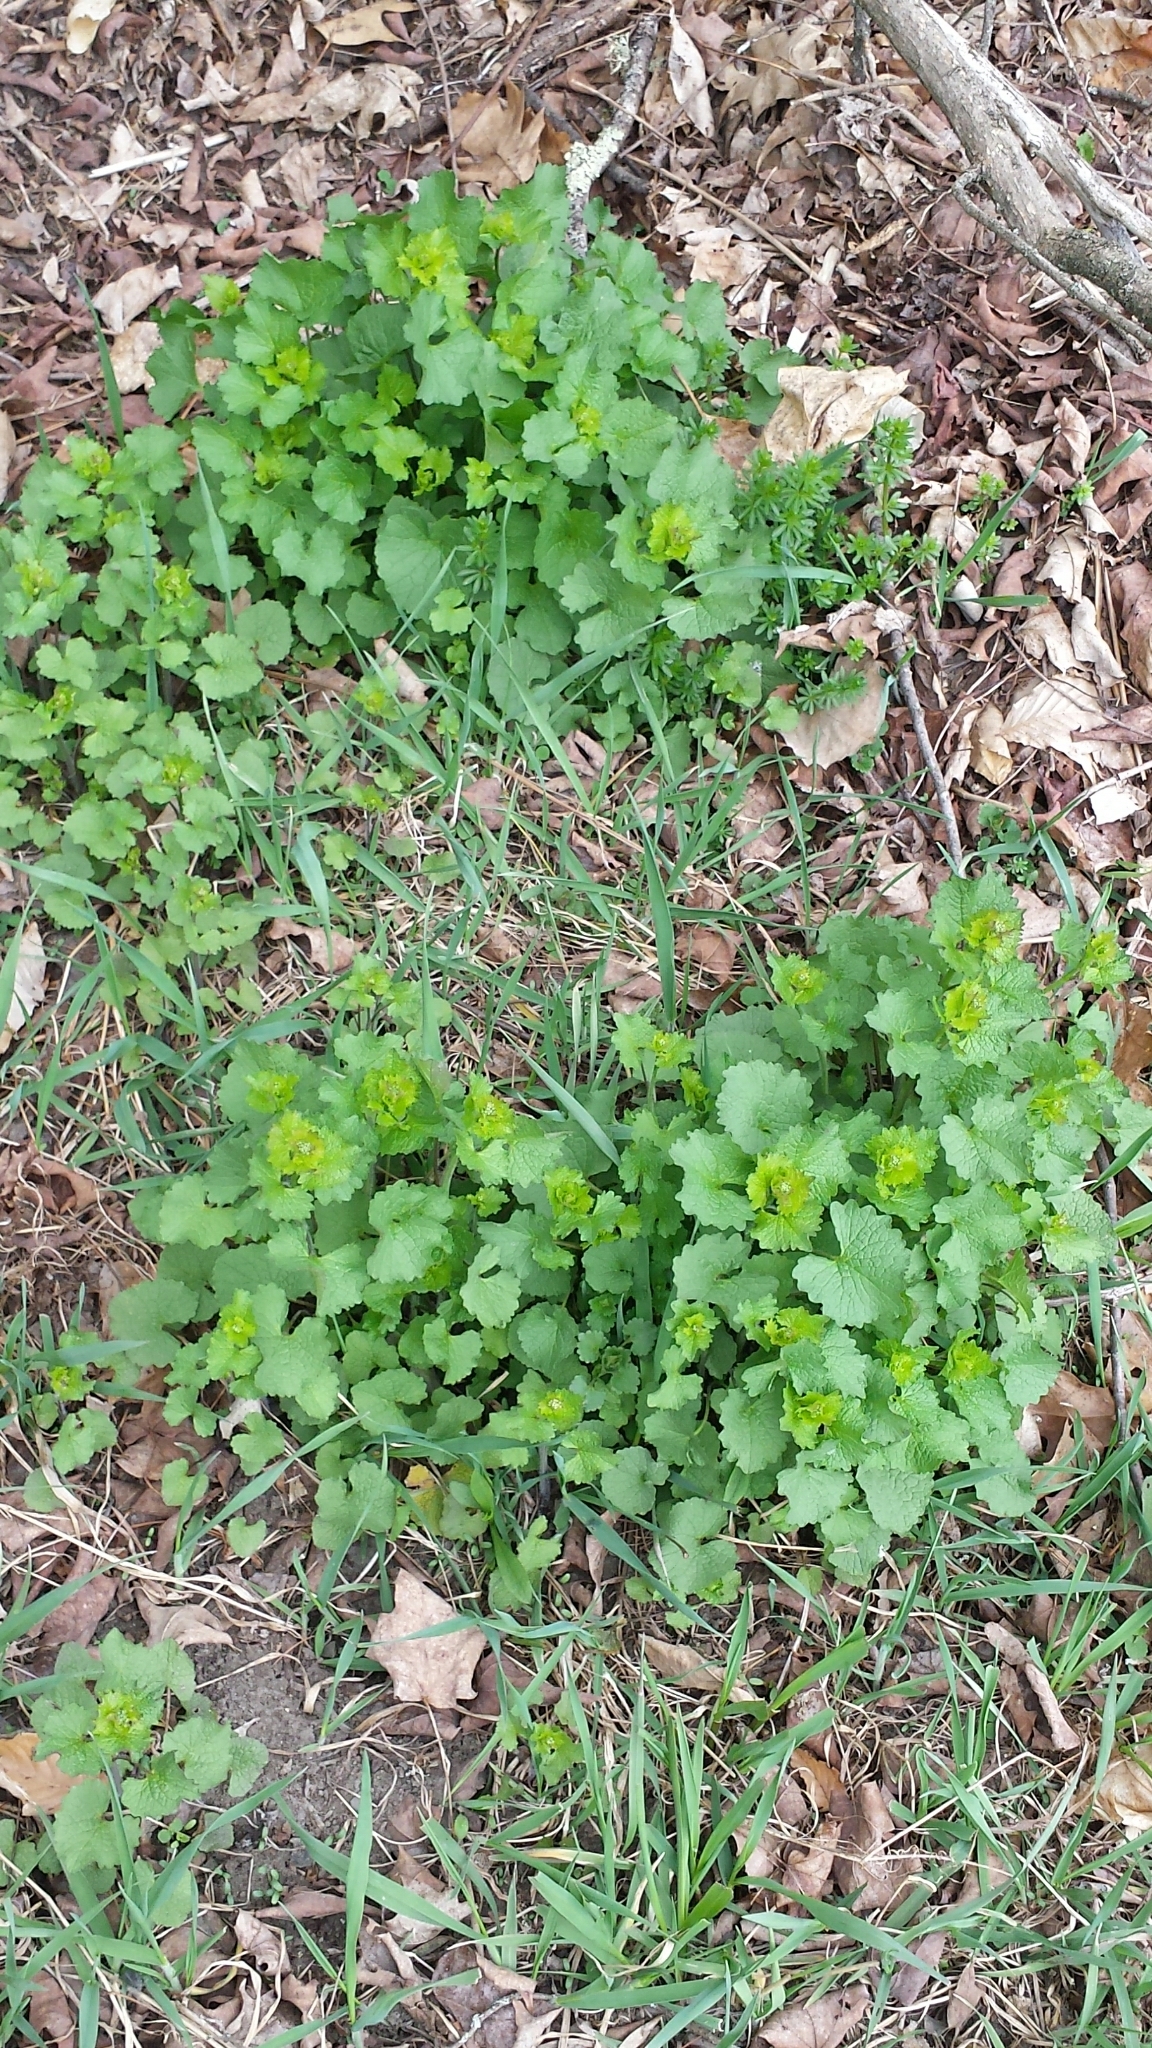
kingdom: Plantae
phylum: Tracheophyta
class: Magnoliopsida
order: Brassicales
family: Brassicaceae
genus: Alliaria
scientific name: Alliaria petiolata
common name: Garlic mustard
